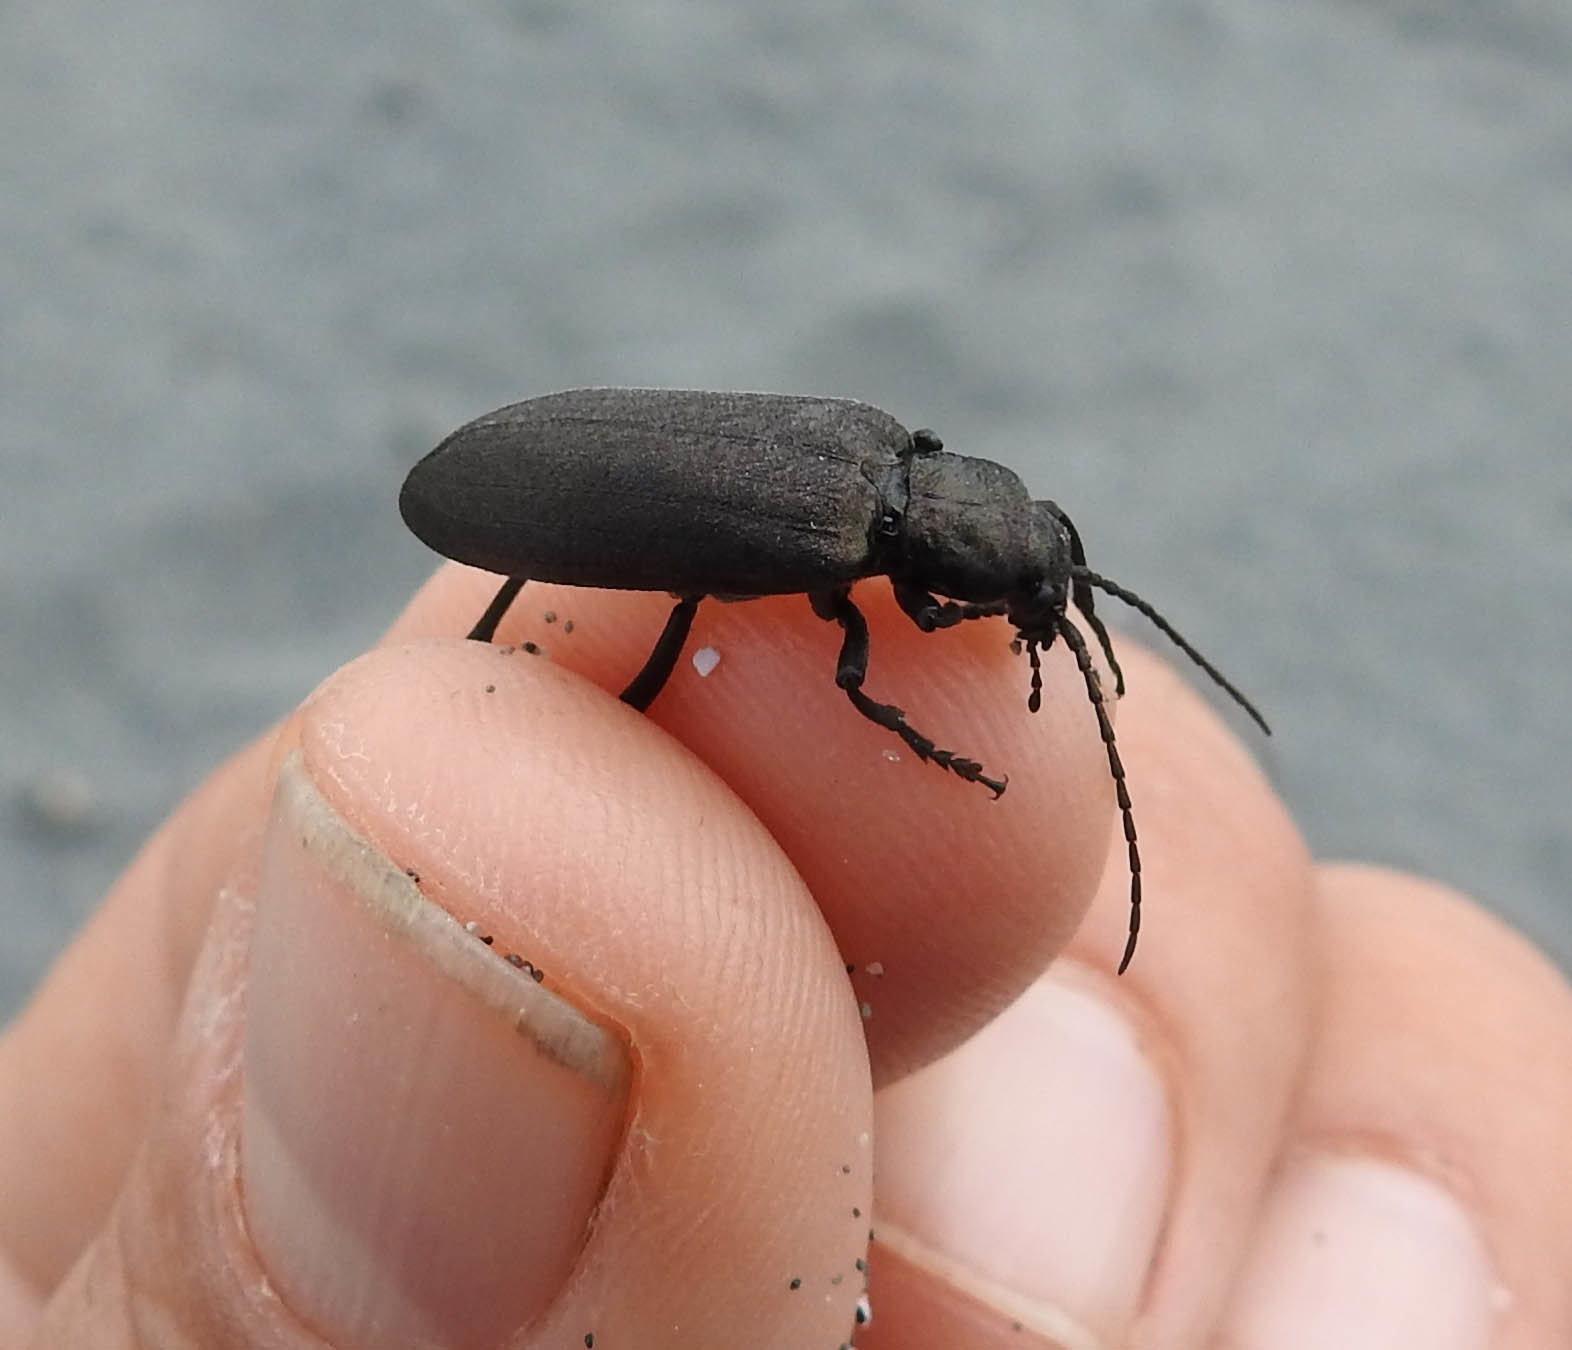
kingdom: Animalia
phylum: Arthropoda
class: Insecta
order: Coleoptera
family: Oedemeridae
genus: Ditylus
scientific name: Ditylus quadricollis
